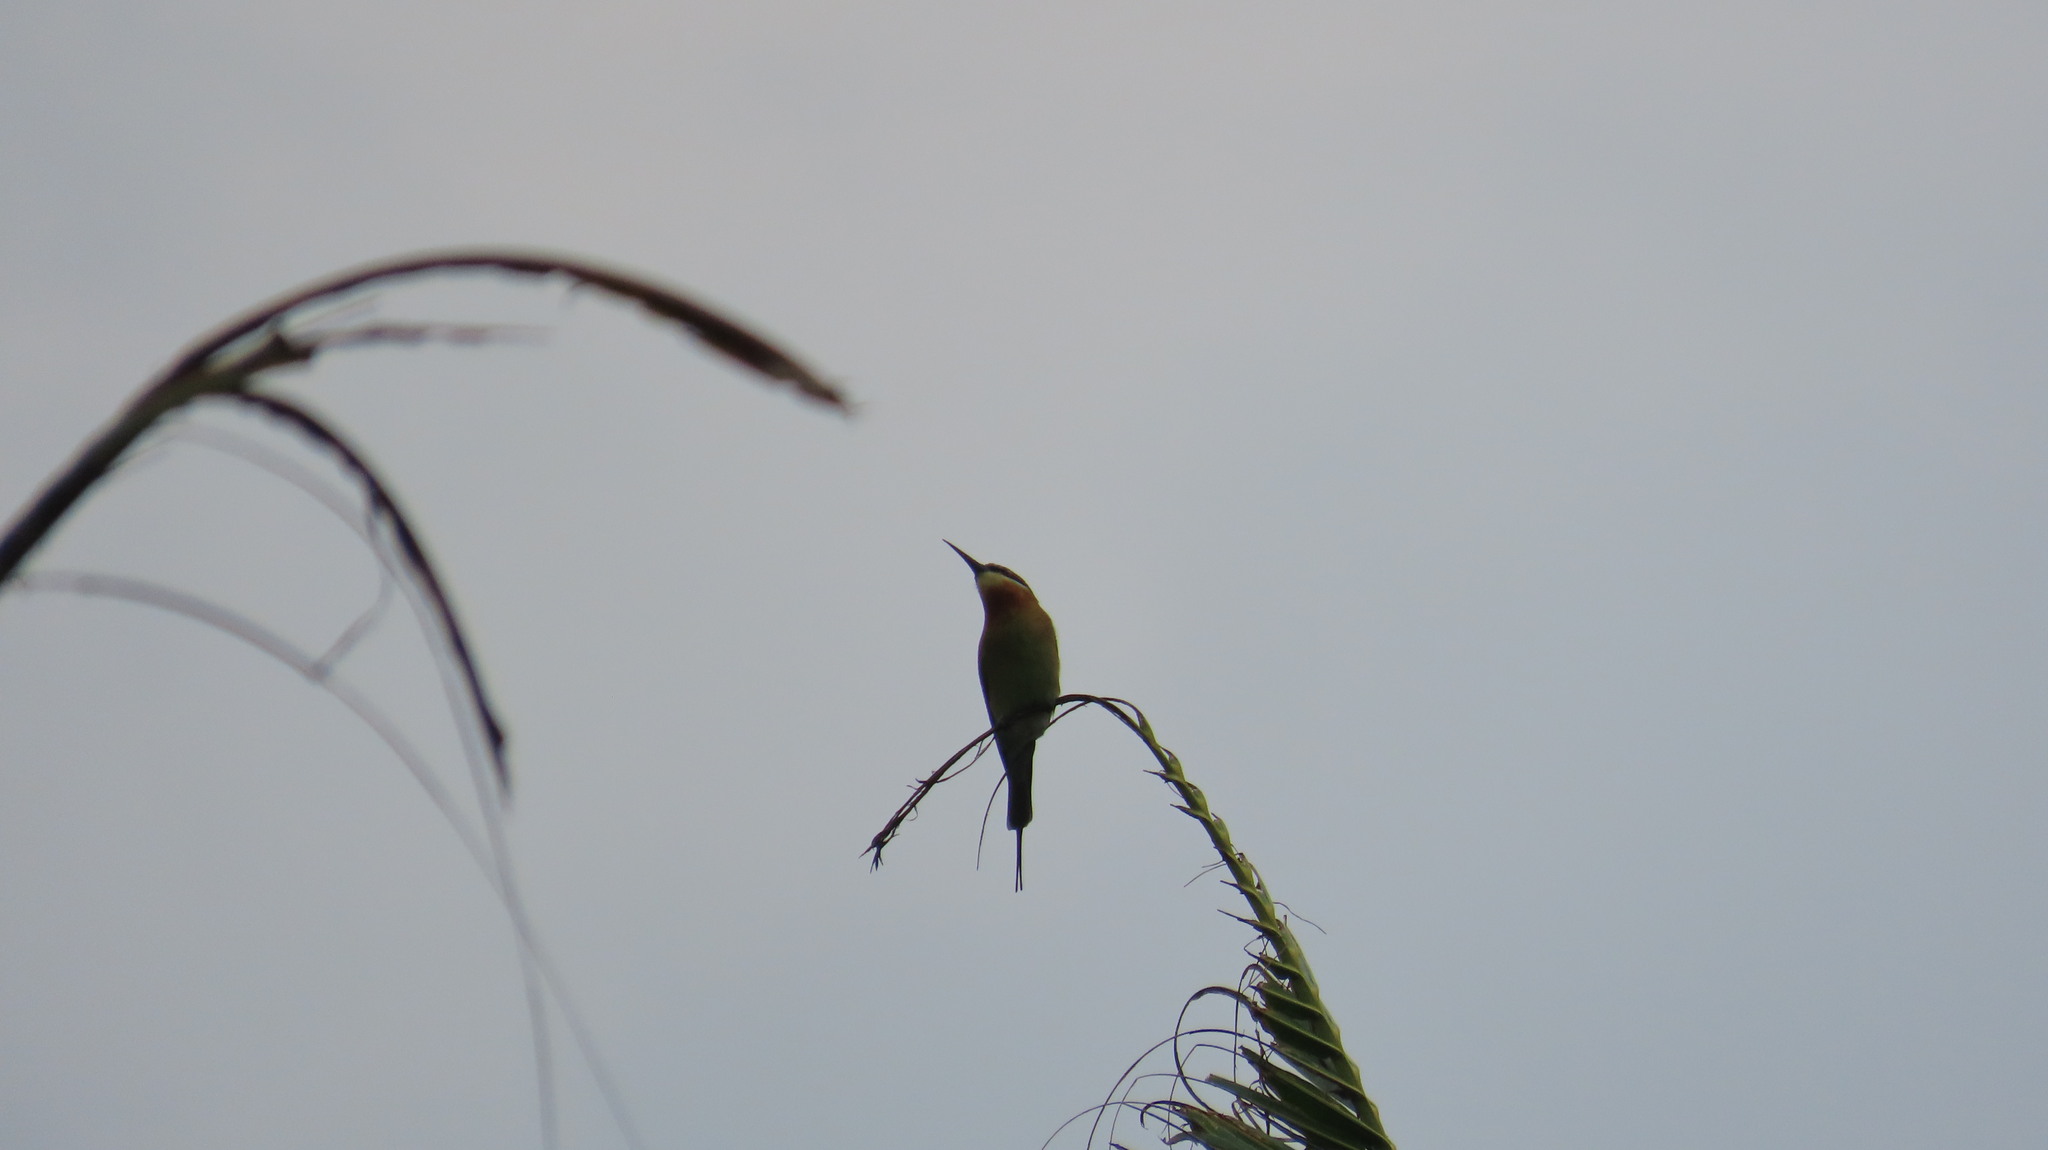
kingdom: Animalia
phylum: Chordata
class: Aves
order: Coraciiformes
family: Meropidae
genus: Merops
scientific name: Merops philippinus
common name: Blue-tailed bee-eater
